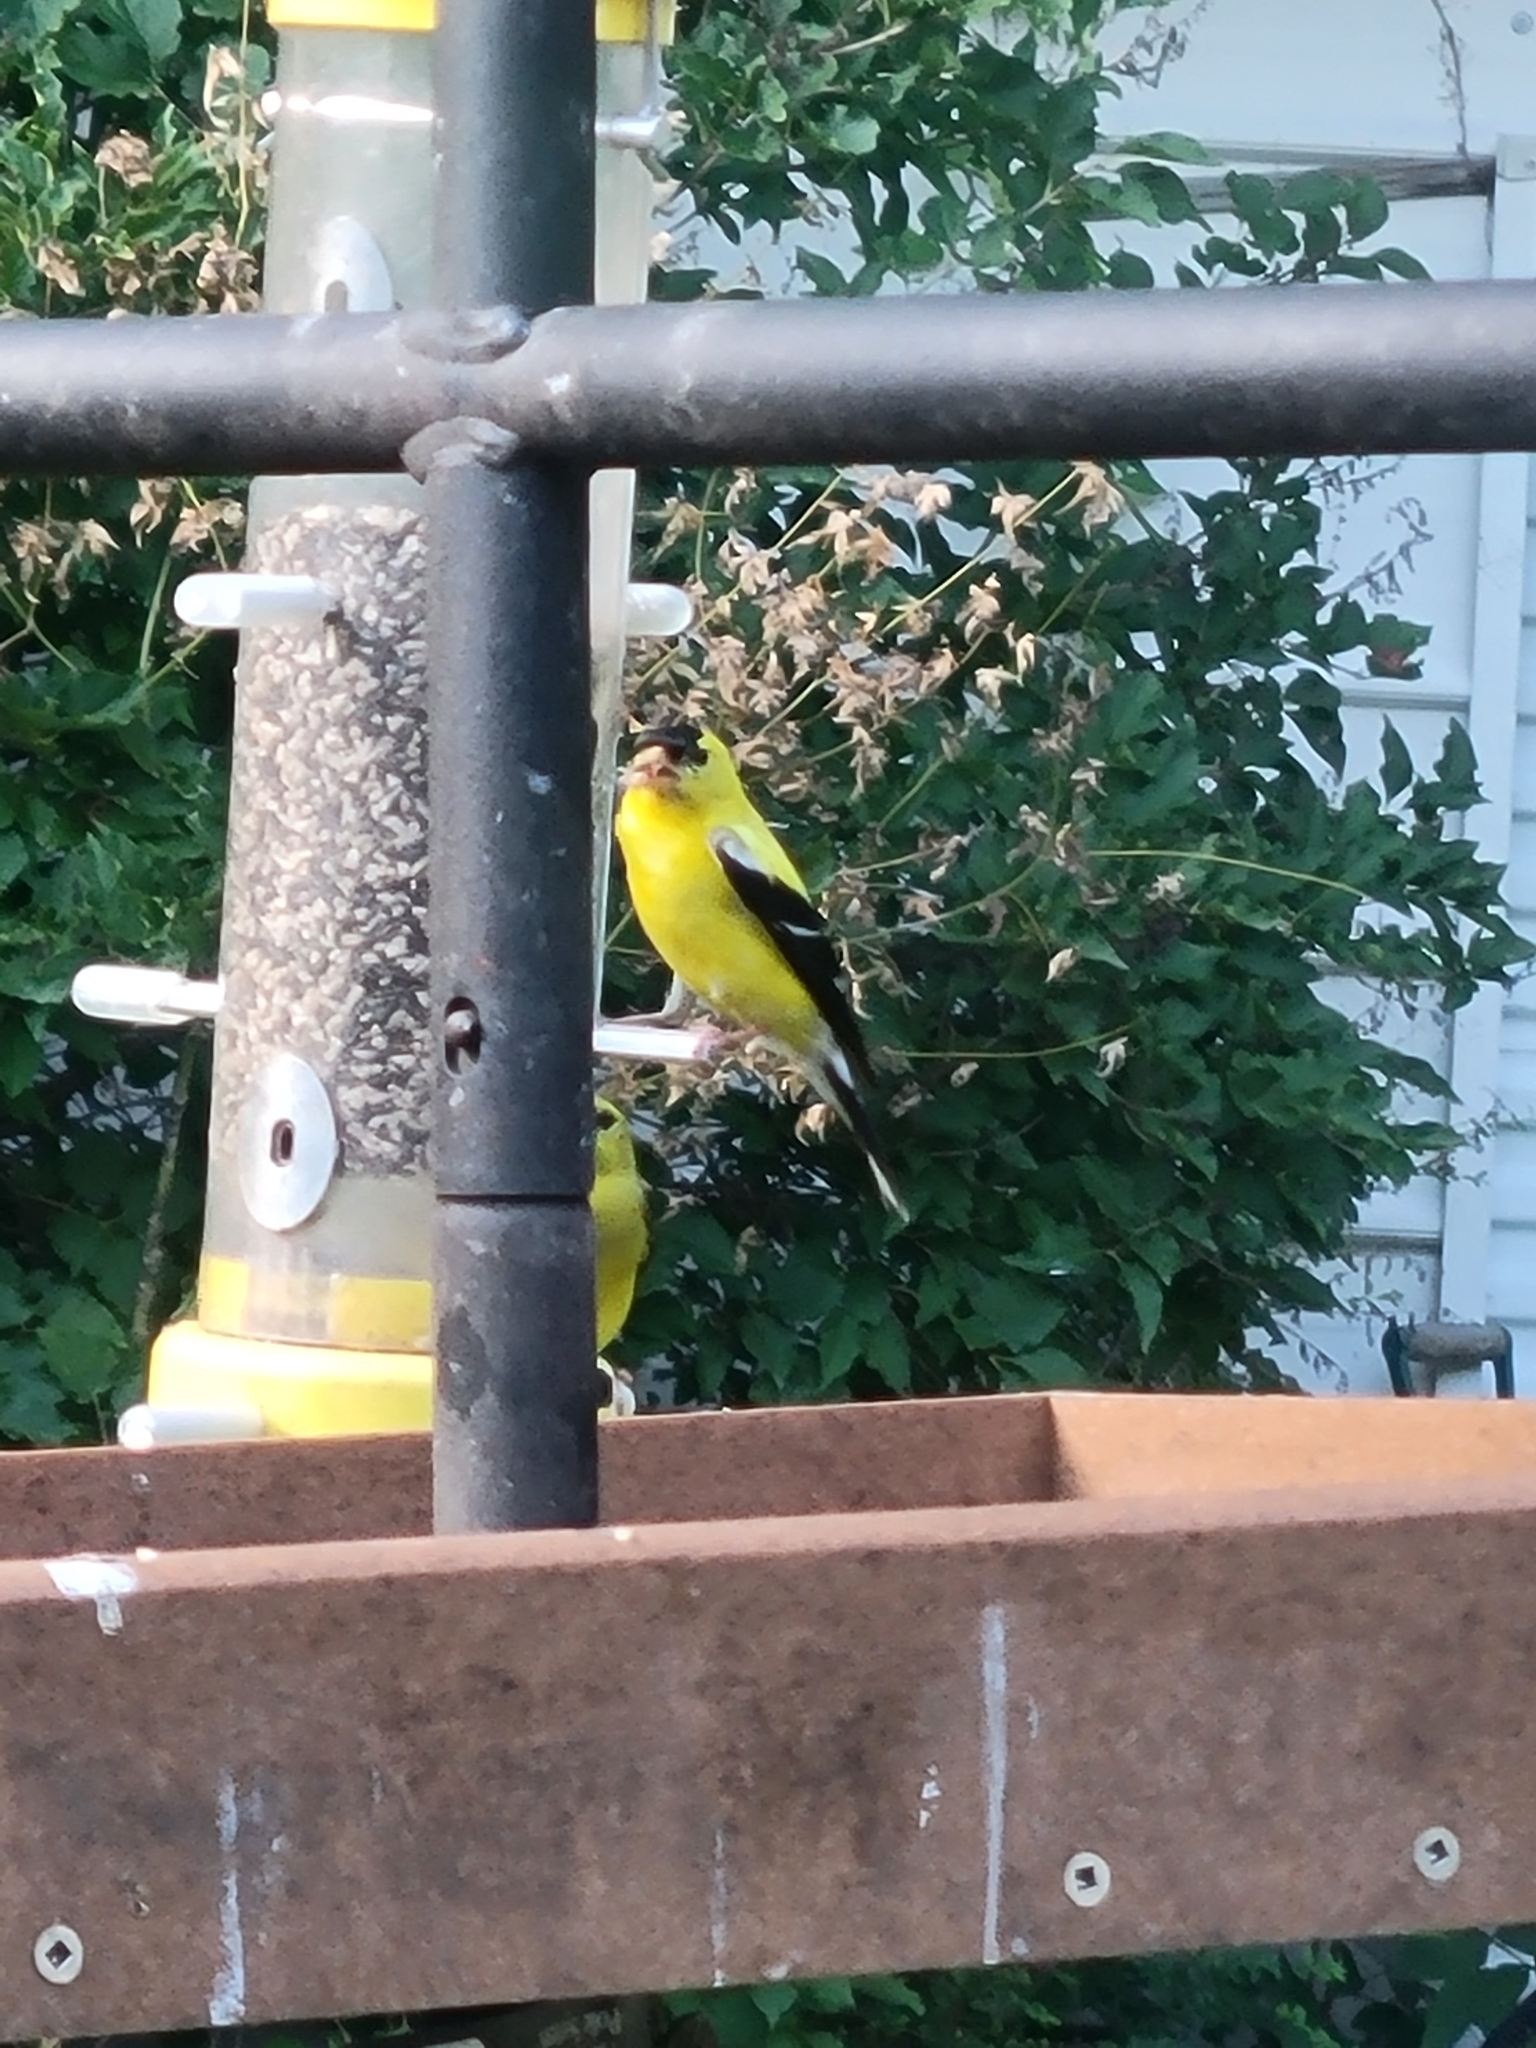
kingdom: Animalia
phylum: Chordata
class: Aves
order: Passeriformes
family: Fringillidae
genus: Spinus
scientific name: Spinus tristis
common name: American goldfinch
